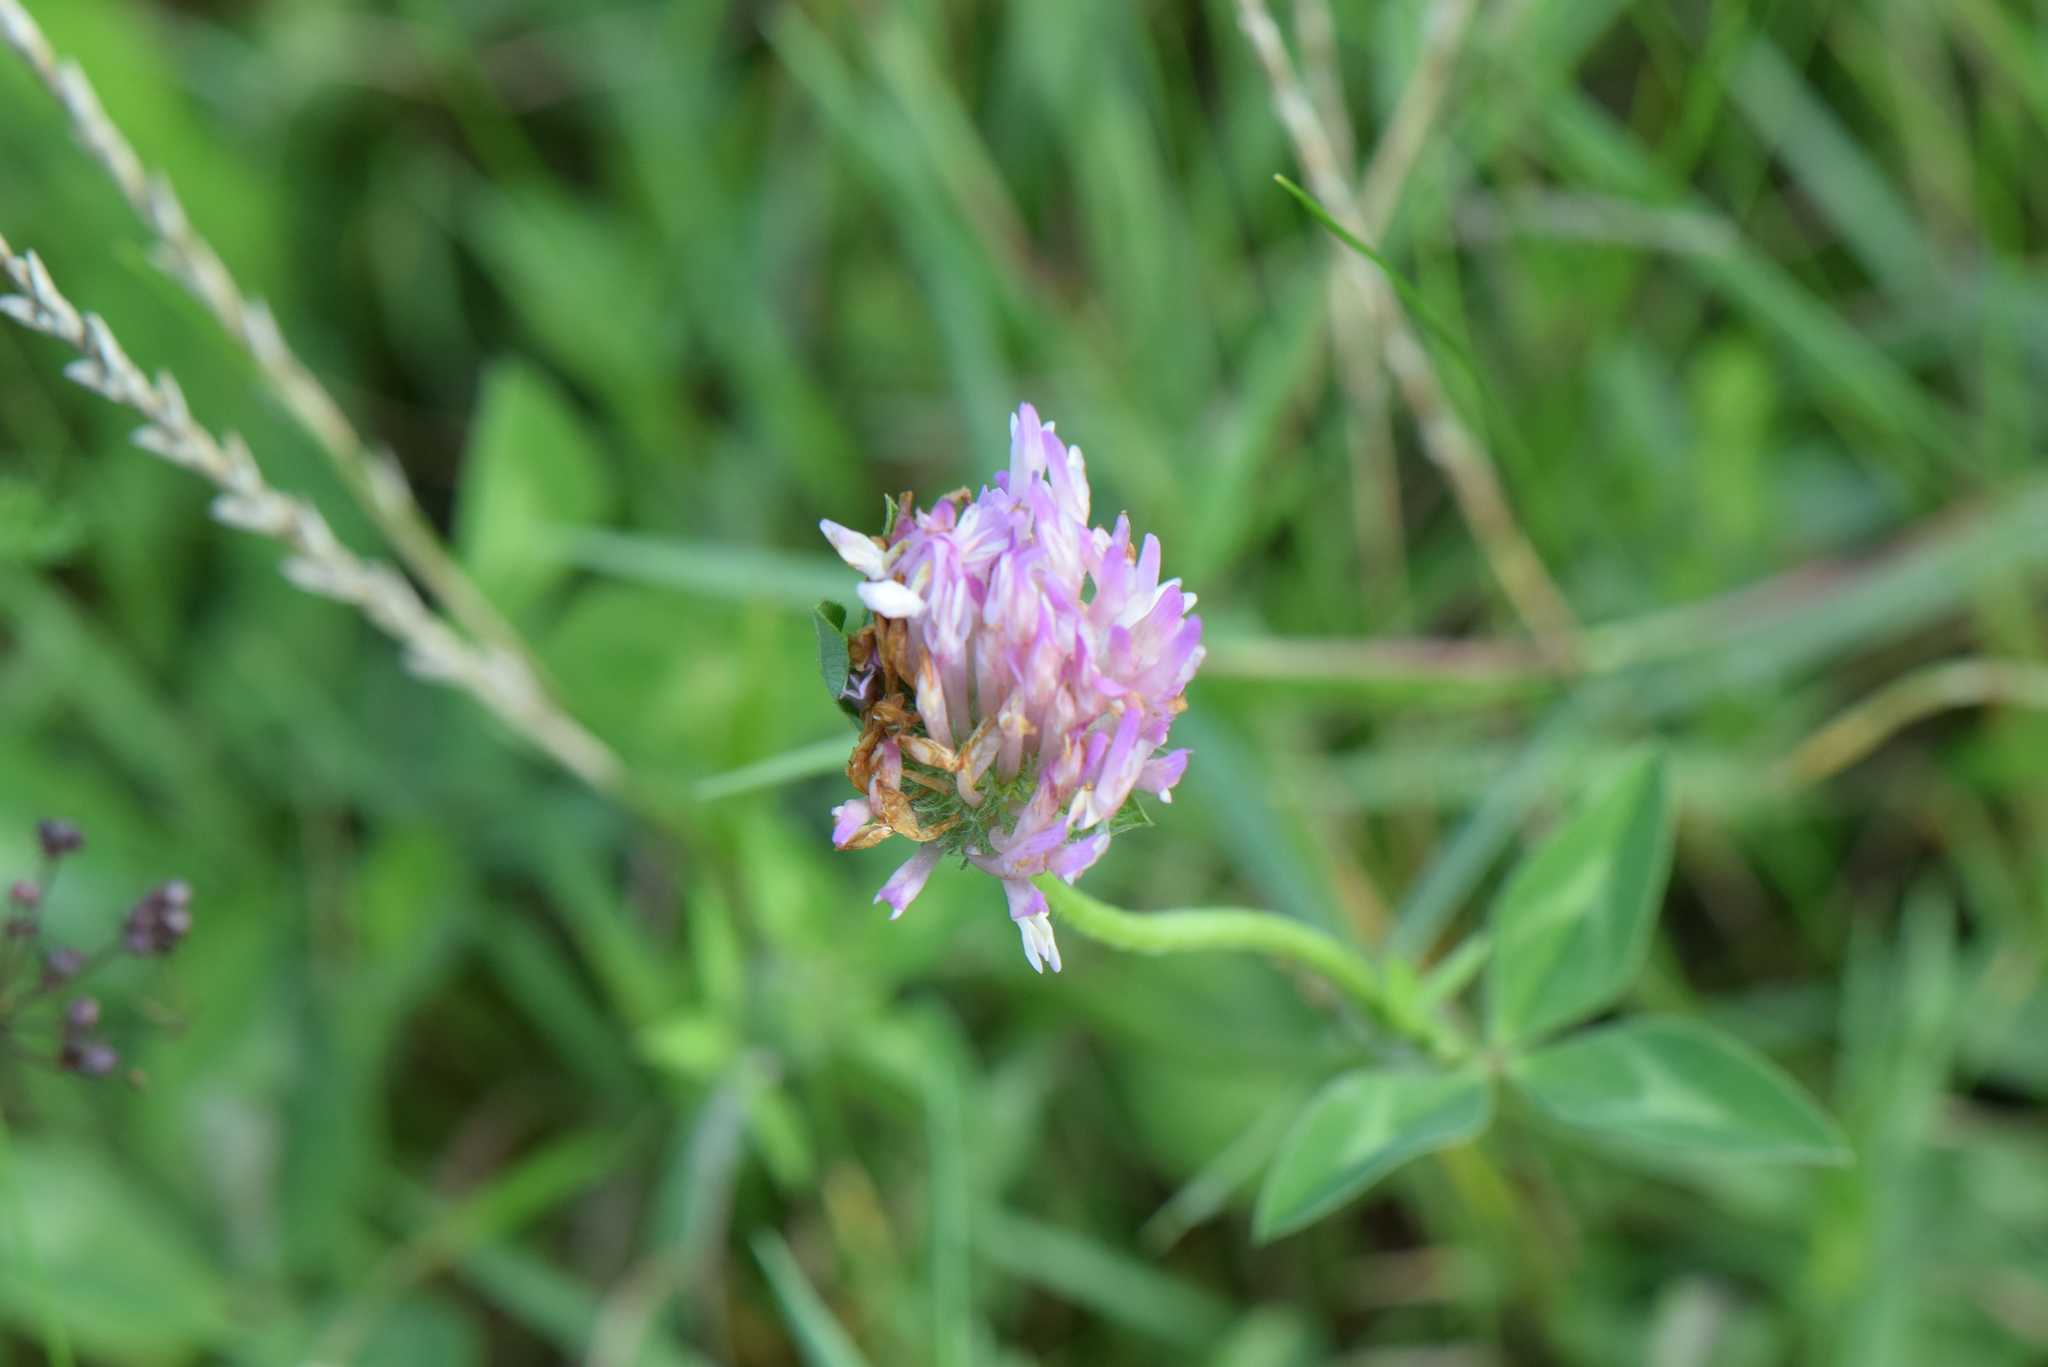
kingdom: Plantae
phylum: Tracheophyta
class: Magnoliopsida
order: Fabales
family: Fabaceae
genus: Trifolium
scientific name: Trifolium pratense
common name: Red clover
